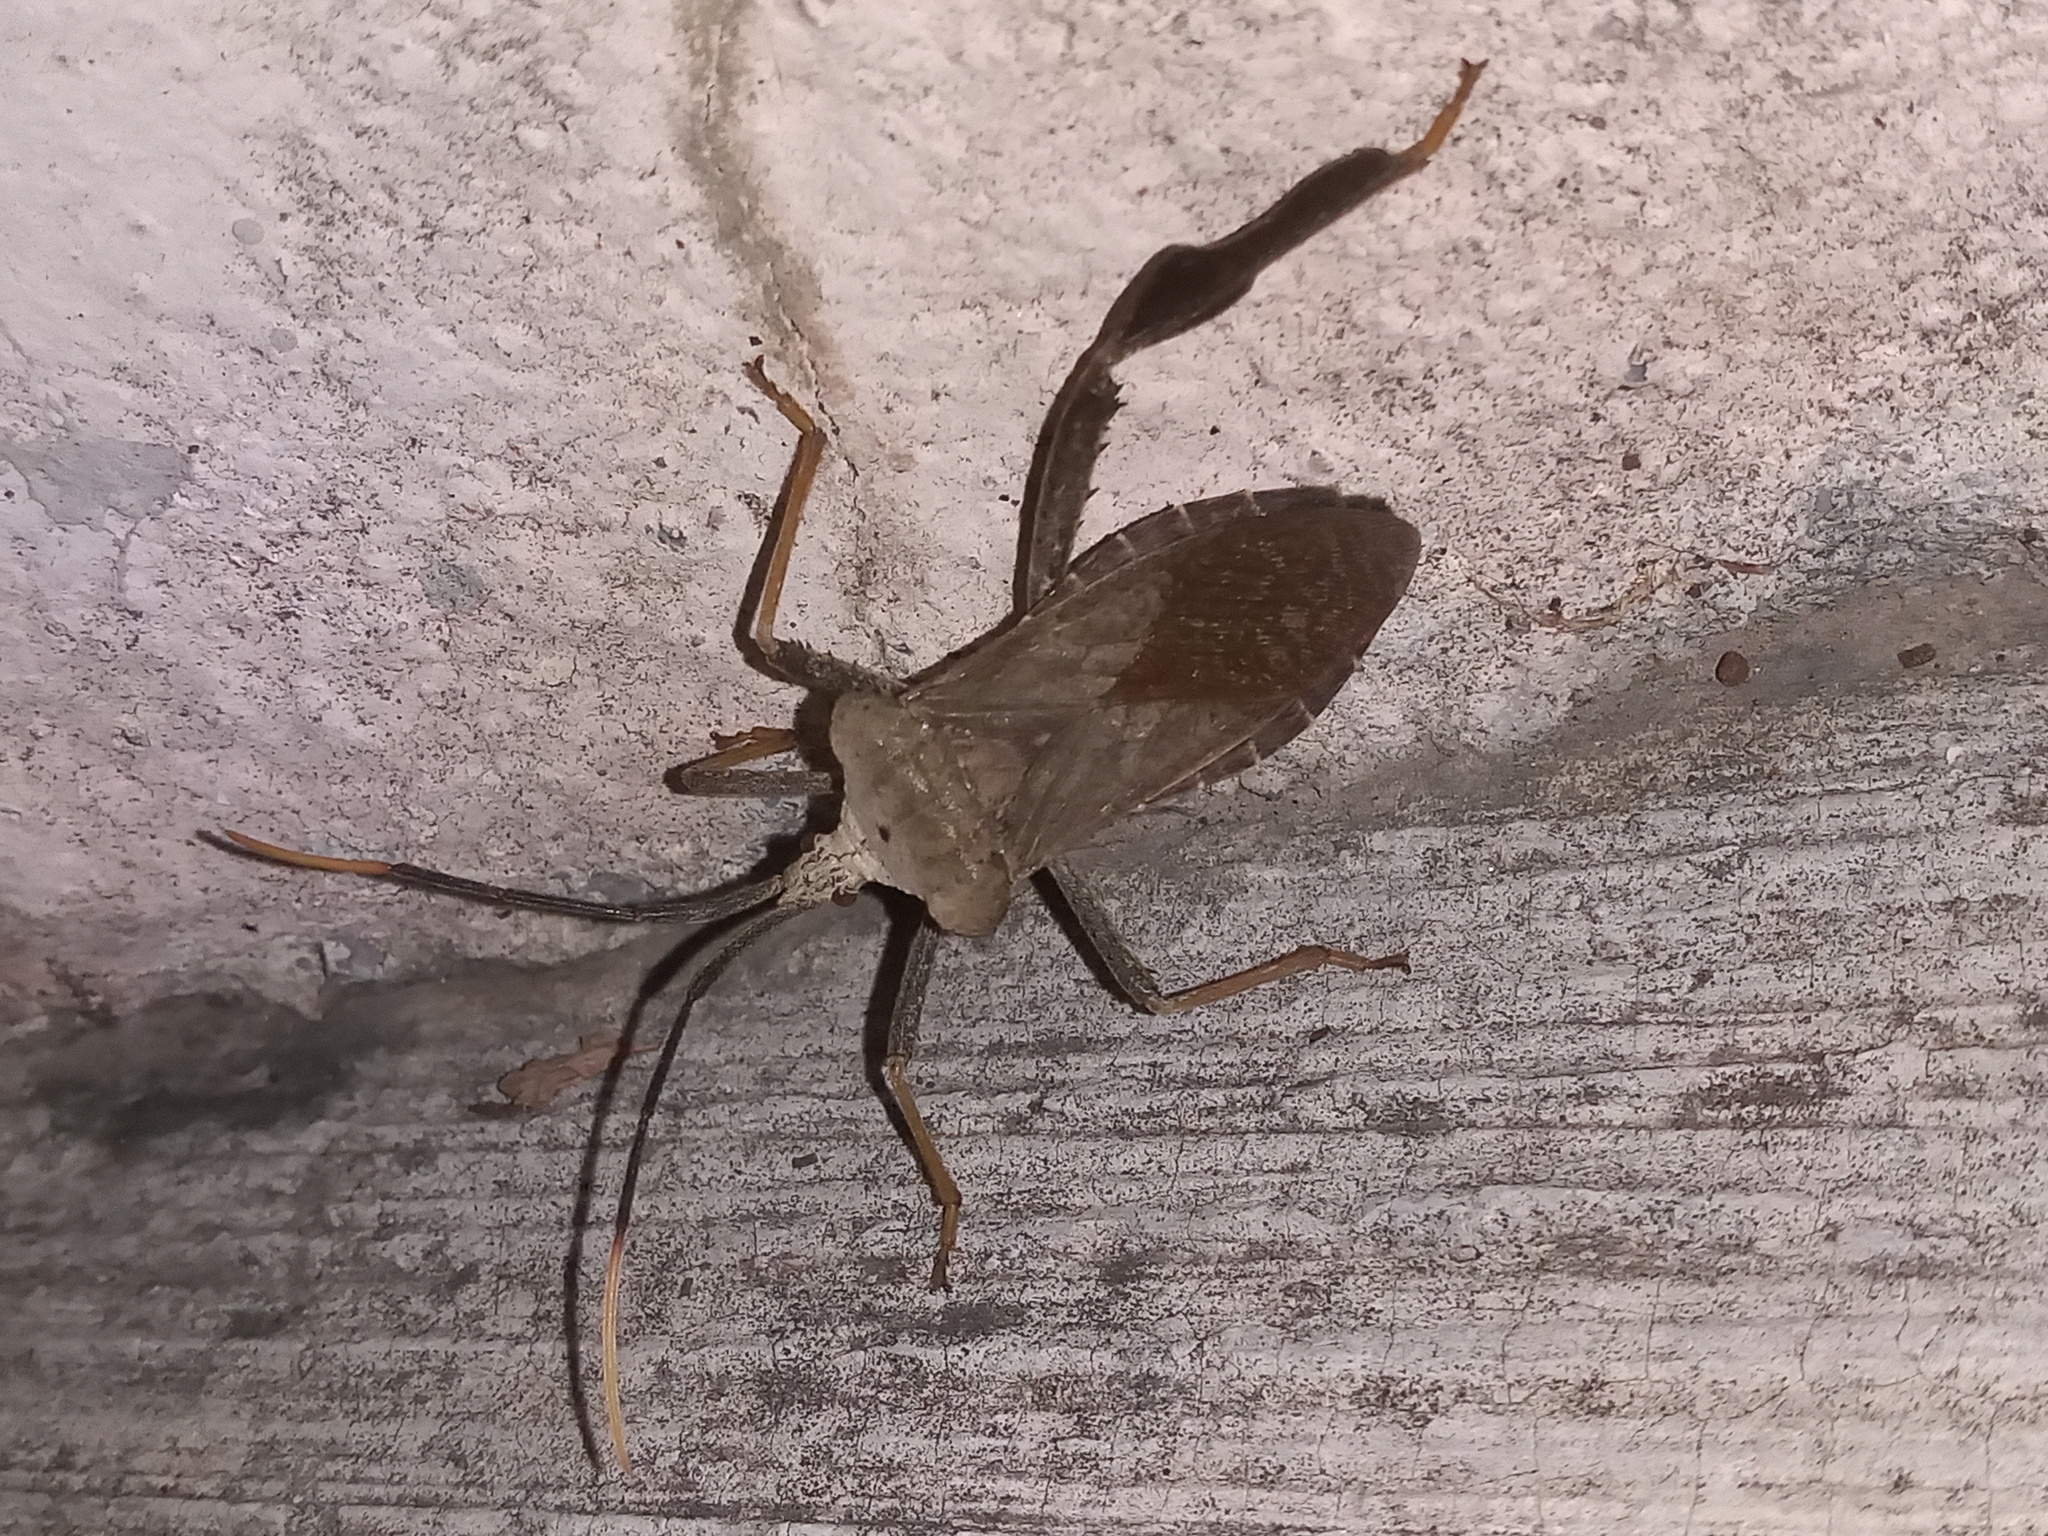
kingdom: Animalia
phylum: Arthropoda
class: Insecta
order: Hemiptera
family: Coreidae
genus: Acanthocephala
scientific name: Acanthocephala alata
